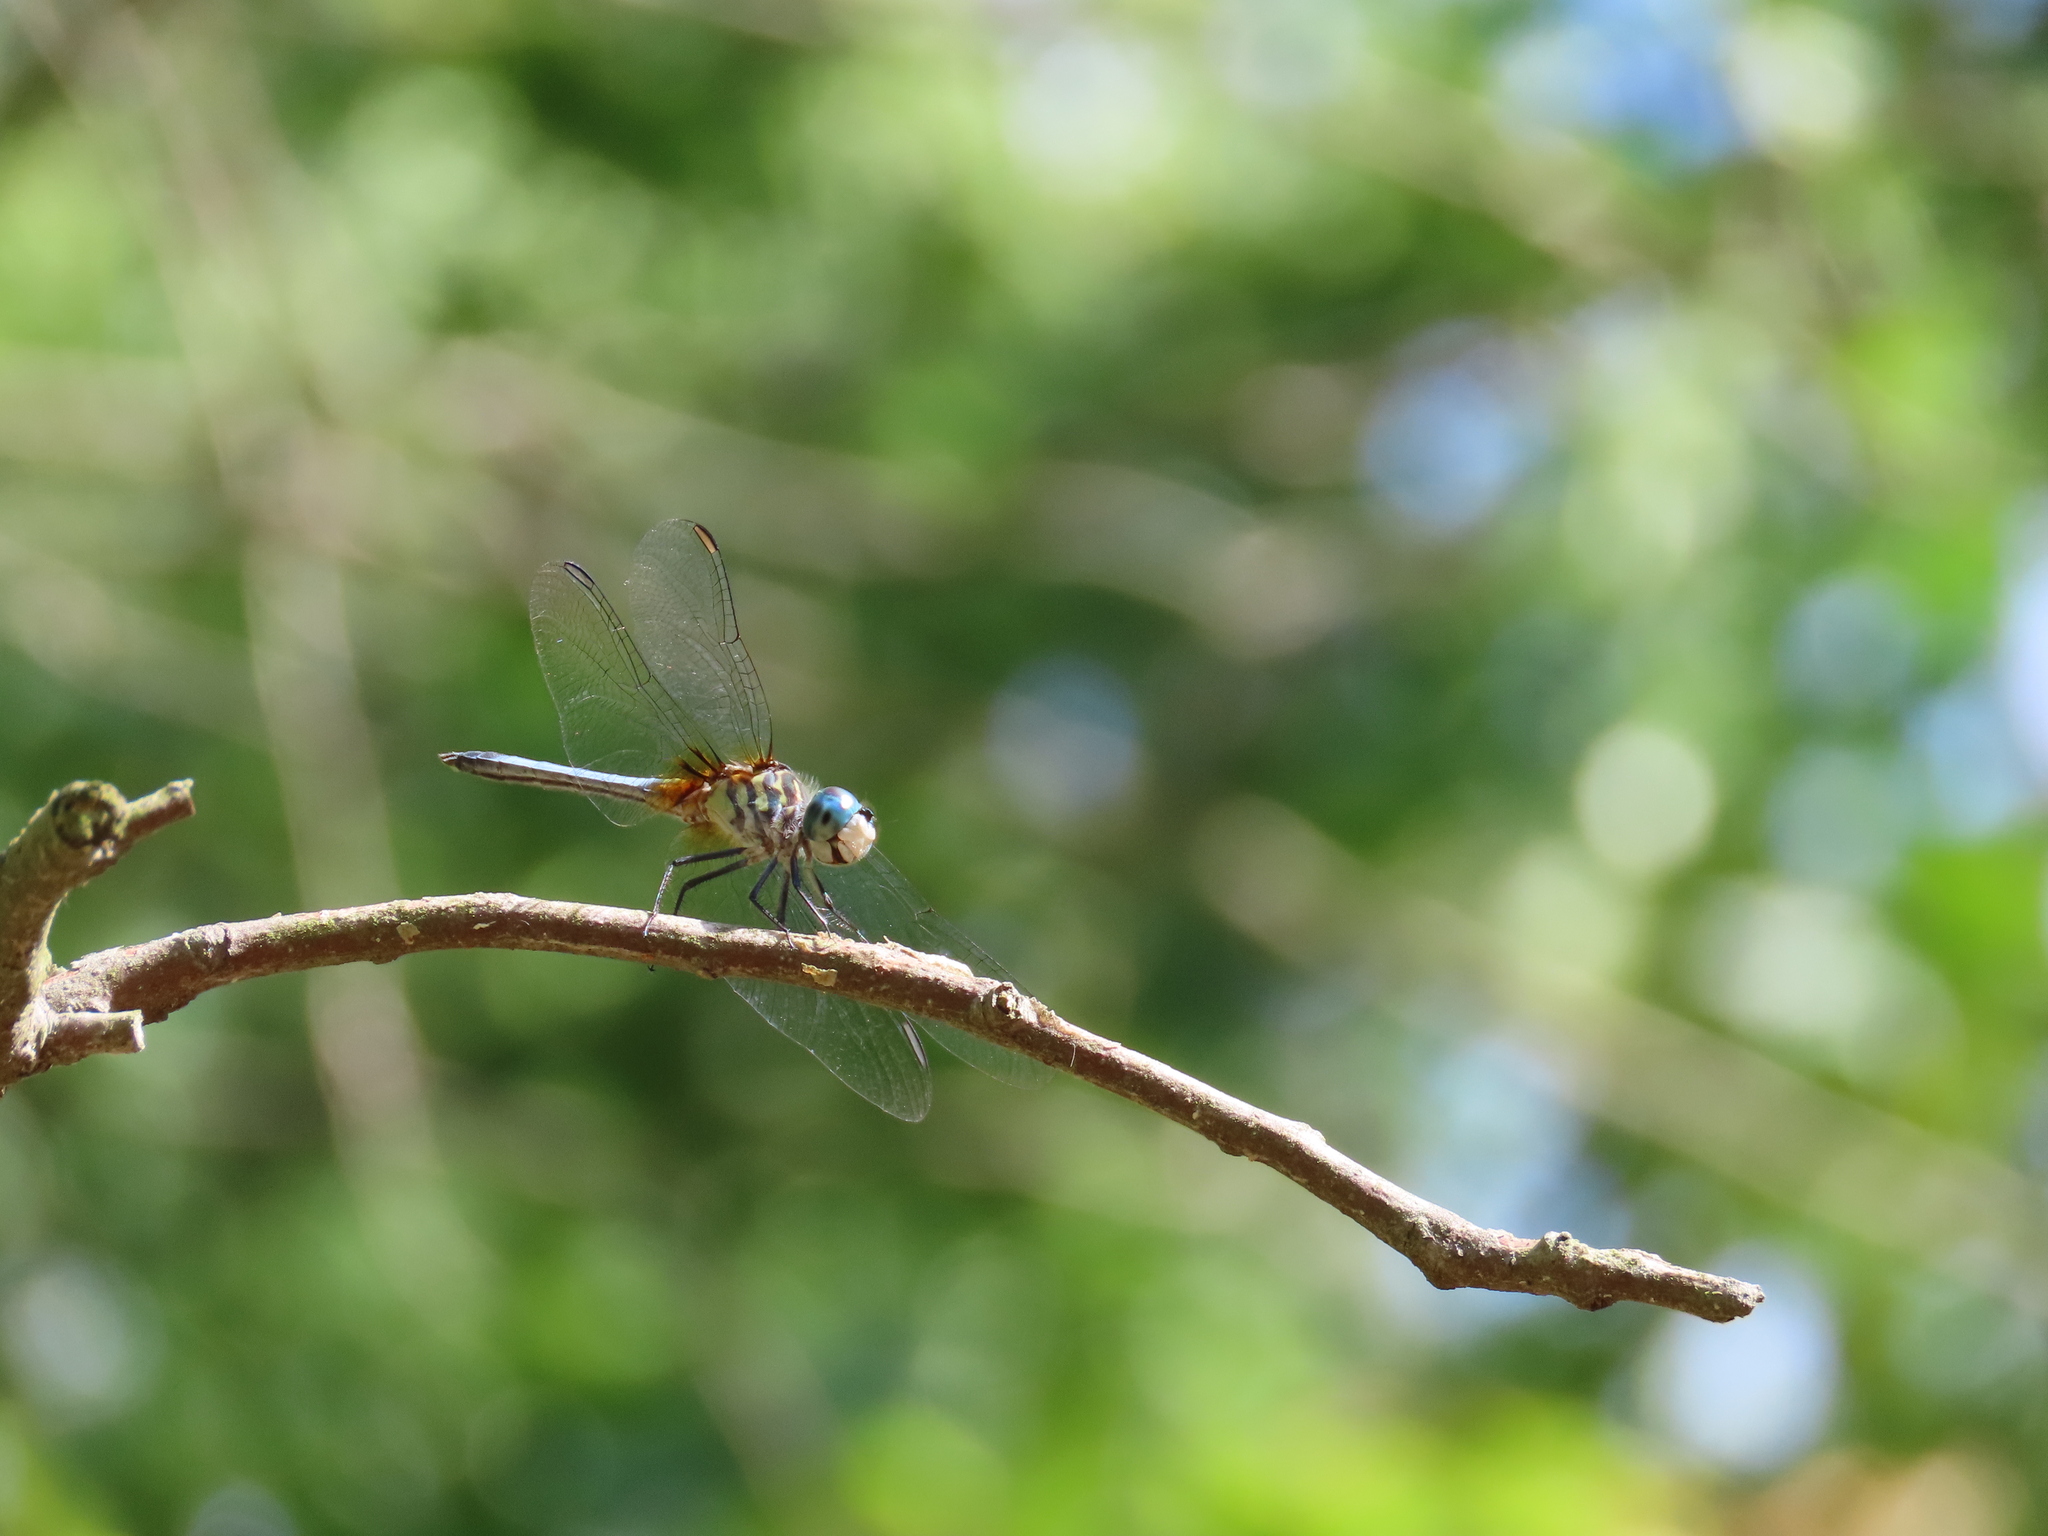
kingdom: Animalia
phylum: Arthropoda
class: Insecta
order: Odonata
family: Libellulidae
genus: Pachydiplax
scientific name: Pachydiplax longipennis
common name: Blue dasher
